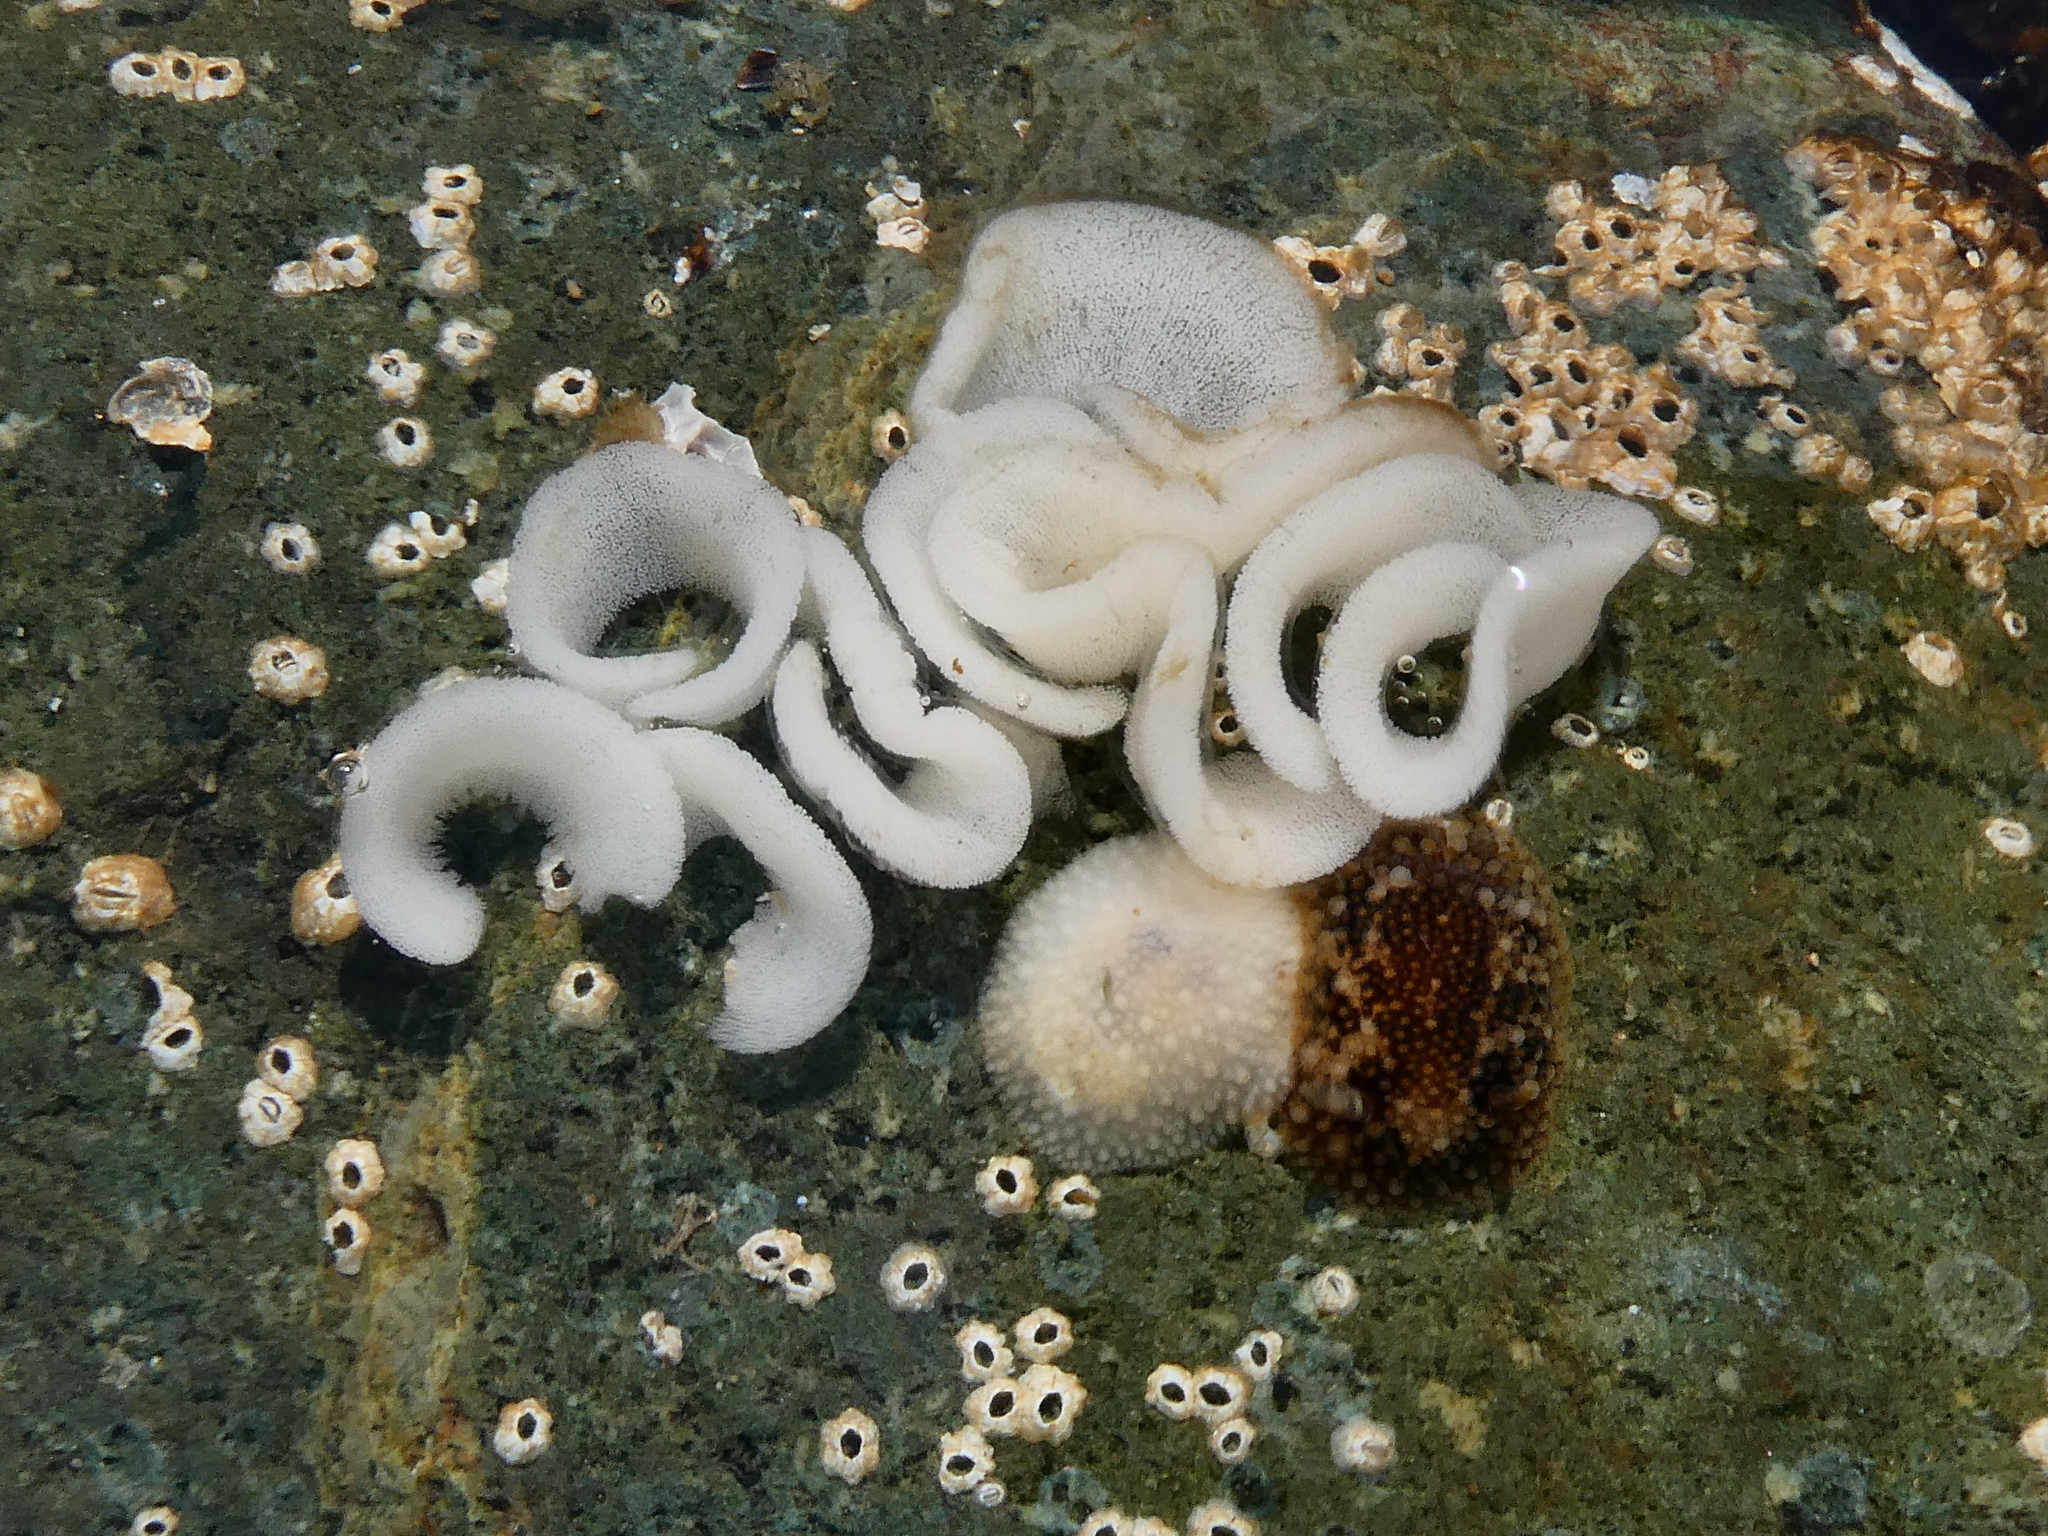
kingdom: Animalia
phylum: Mollusca
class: Gastropoda
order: Nudibranchia
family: Onchidorididae
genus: Onchidoris
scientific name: Onchidoris bilamellata
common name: Barnacle-eating onchidoris
